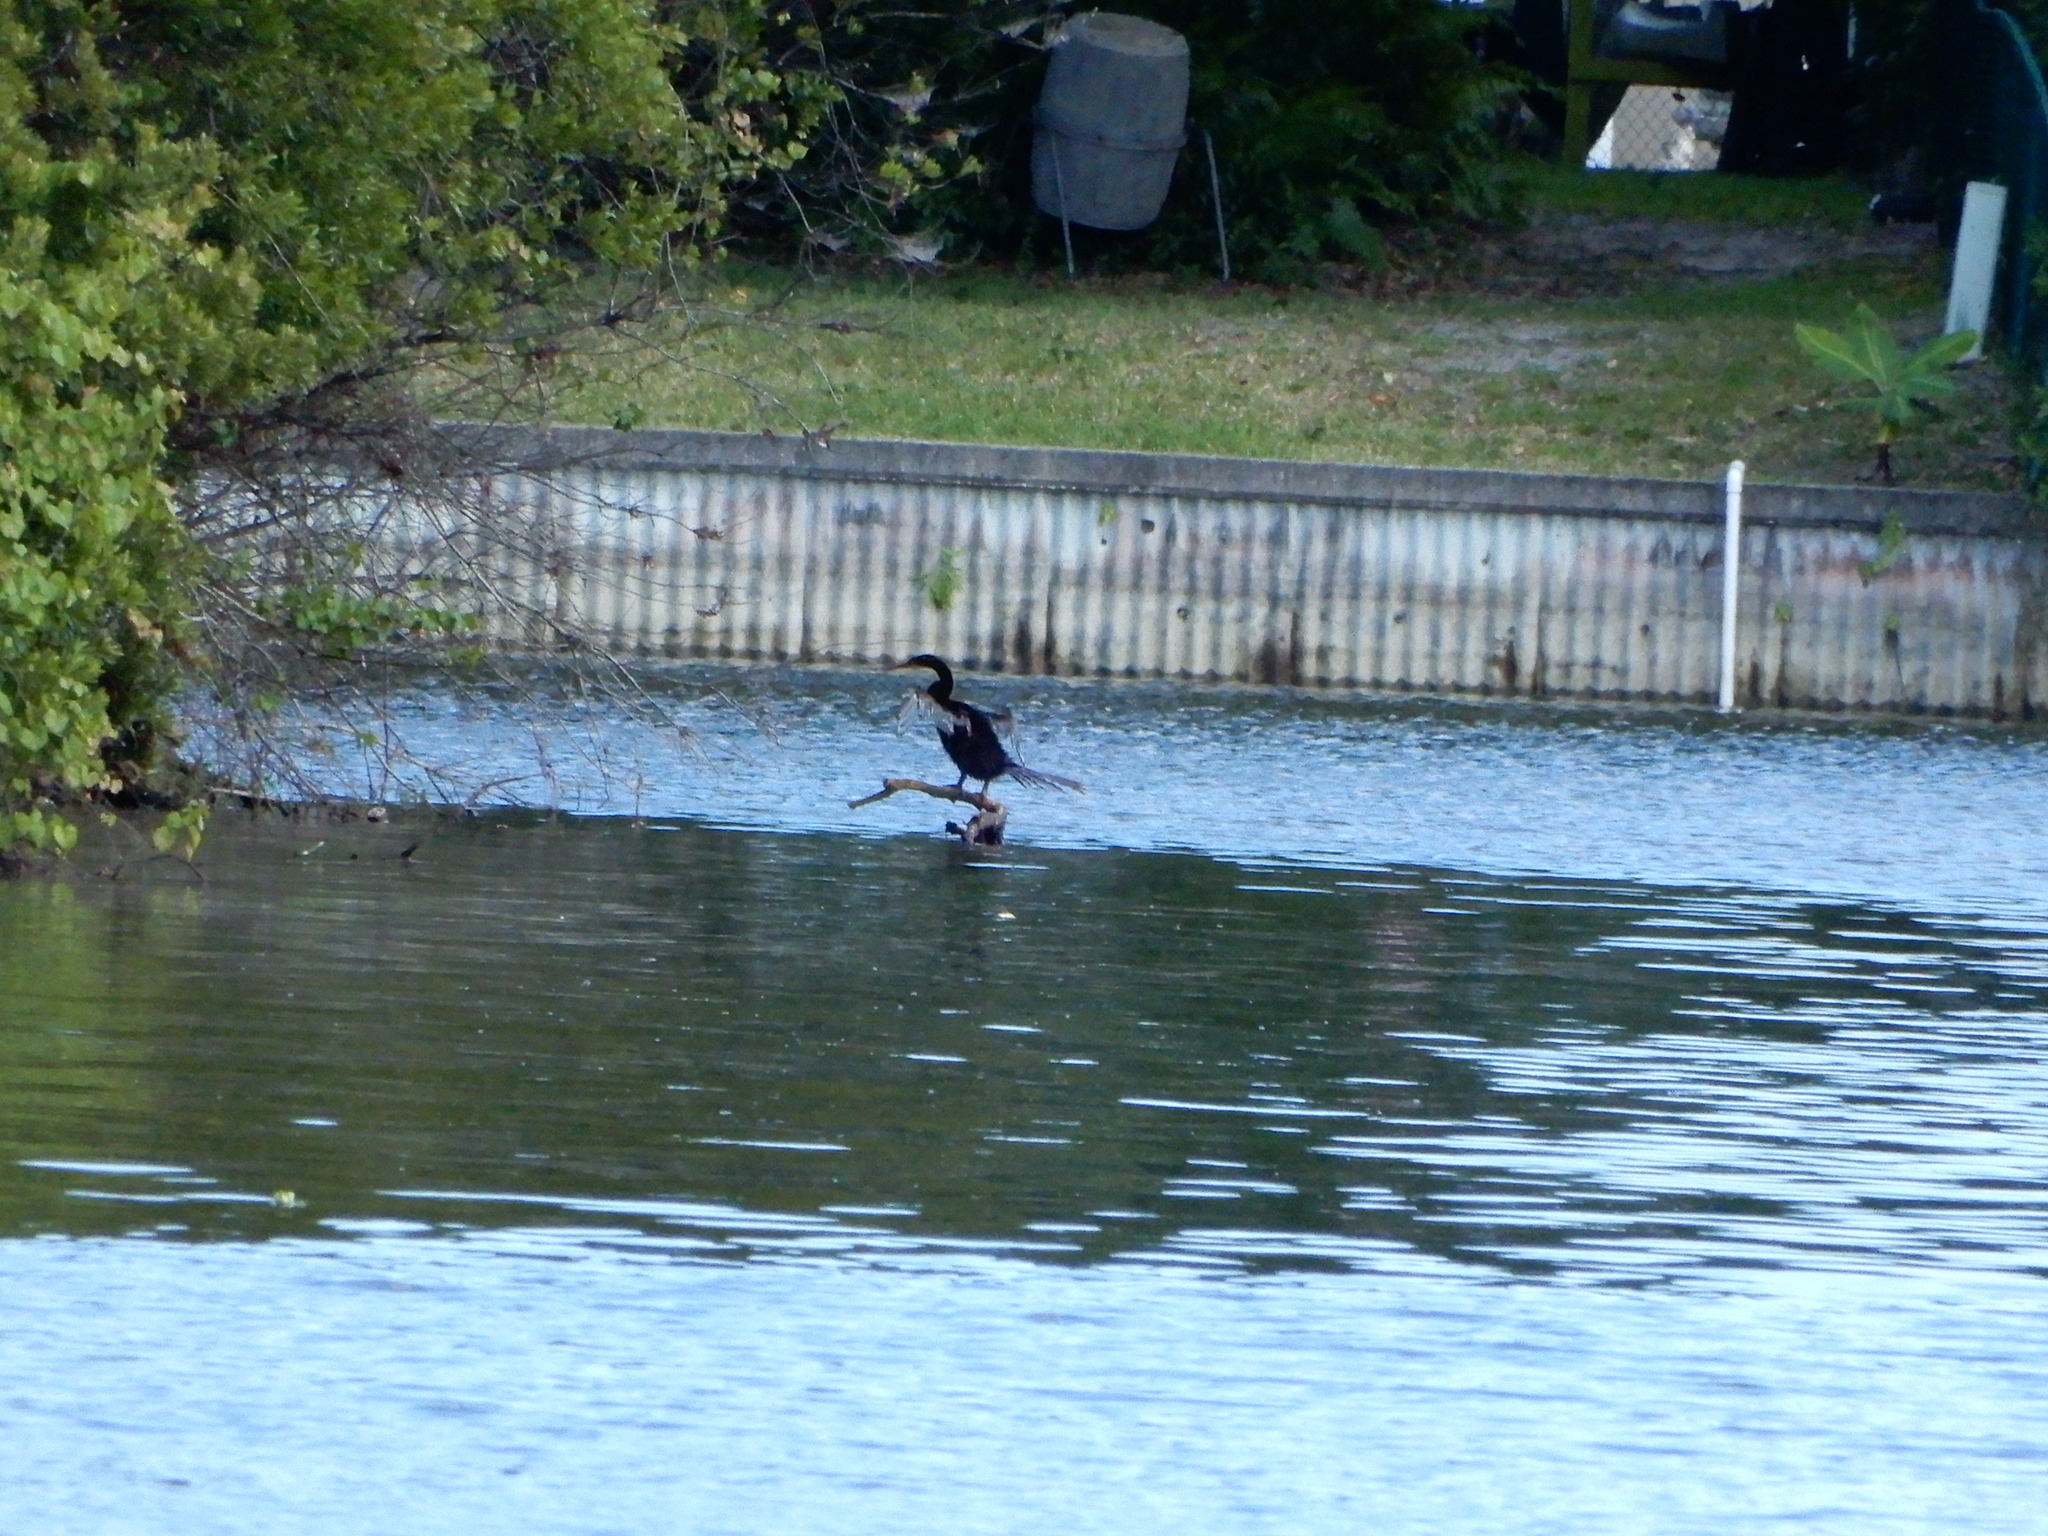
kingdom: Animalia
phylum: Chordata
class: Aves
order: Suliformes
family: Anhingidae
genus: Anhinga
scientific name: Anhinga anhinga
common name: Anhinga
